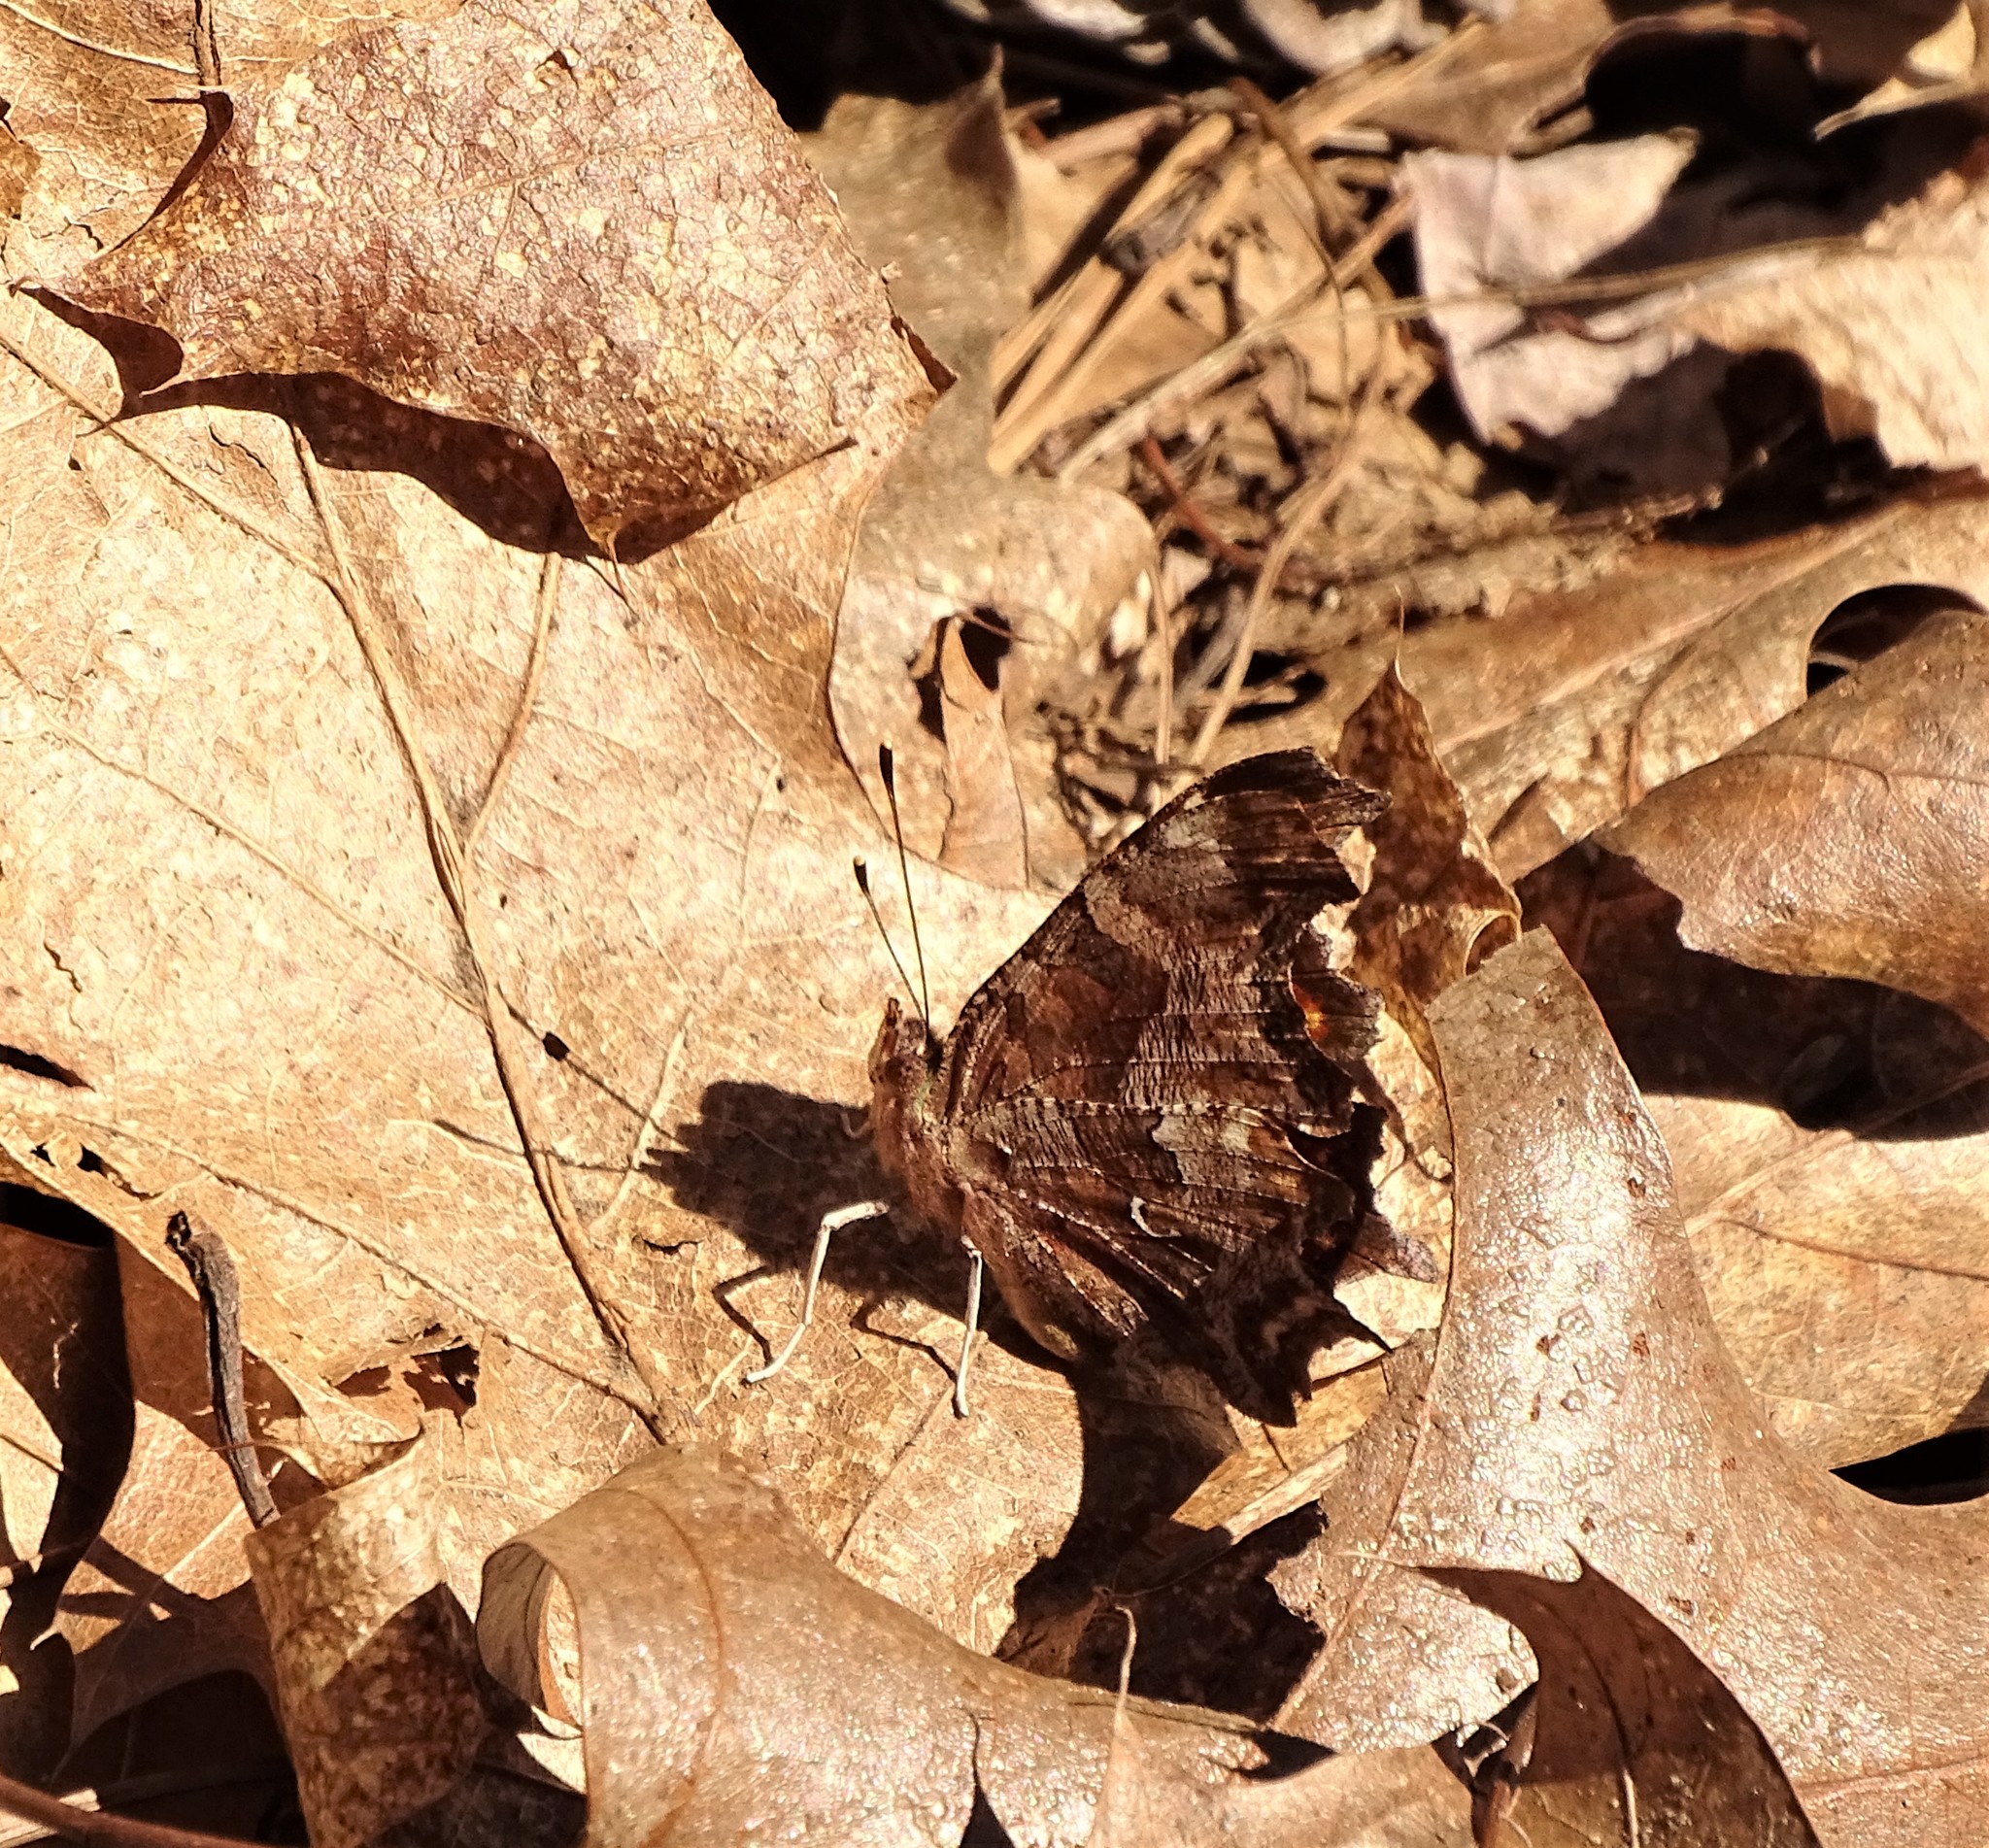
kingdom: Animalia
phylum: Arthropoda
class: Insecta
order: Lepidoptera
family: Nymphalidae
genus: Polygonia
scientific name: Polygonia comma
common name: Eastern comma
